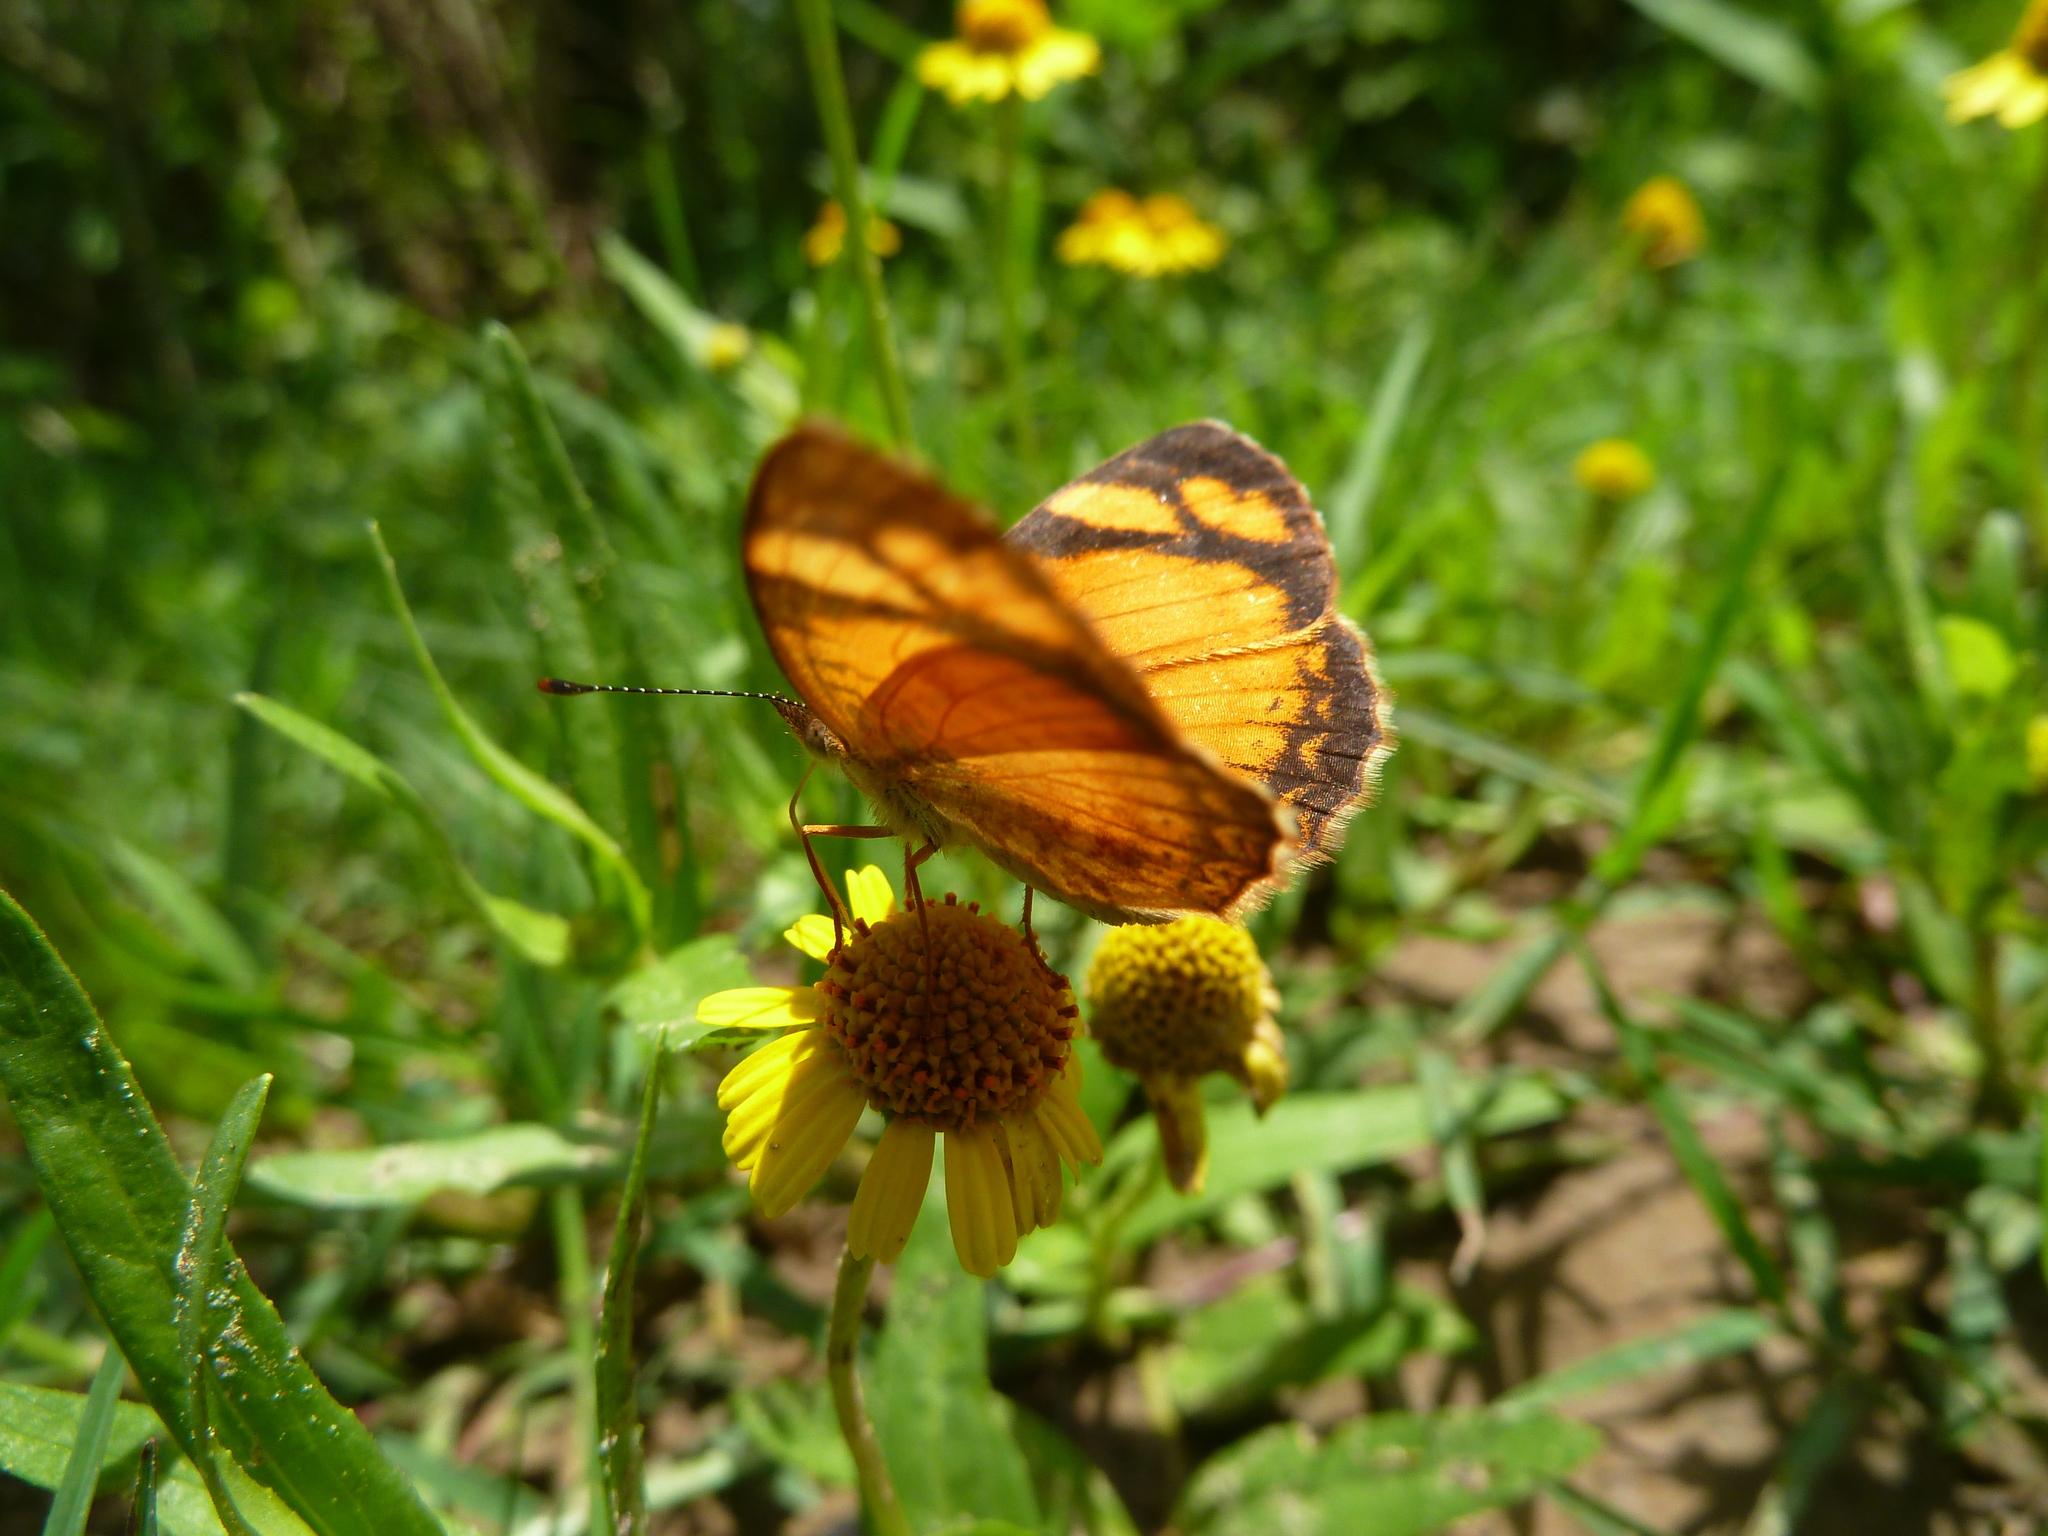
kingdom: Animalia
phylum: Arthropoda
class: Insecta
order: Lepidoptera
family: Nymphalidae
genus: Tegosa
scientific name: Tegosa claudina
